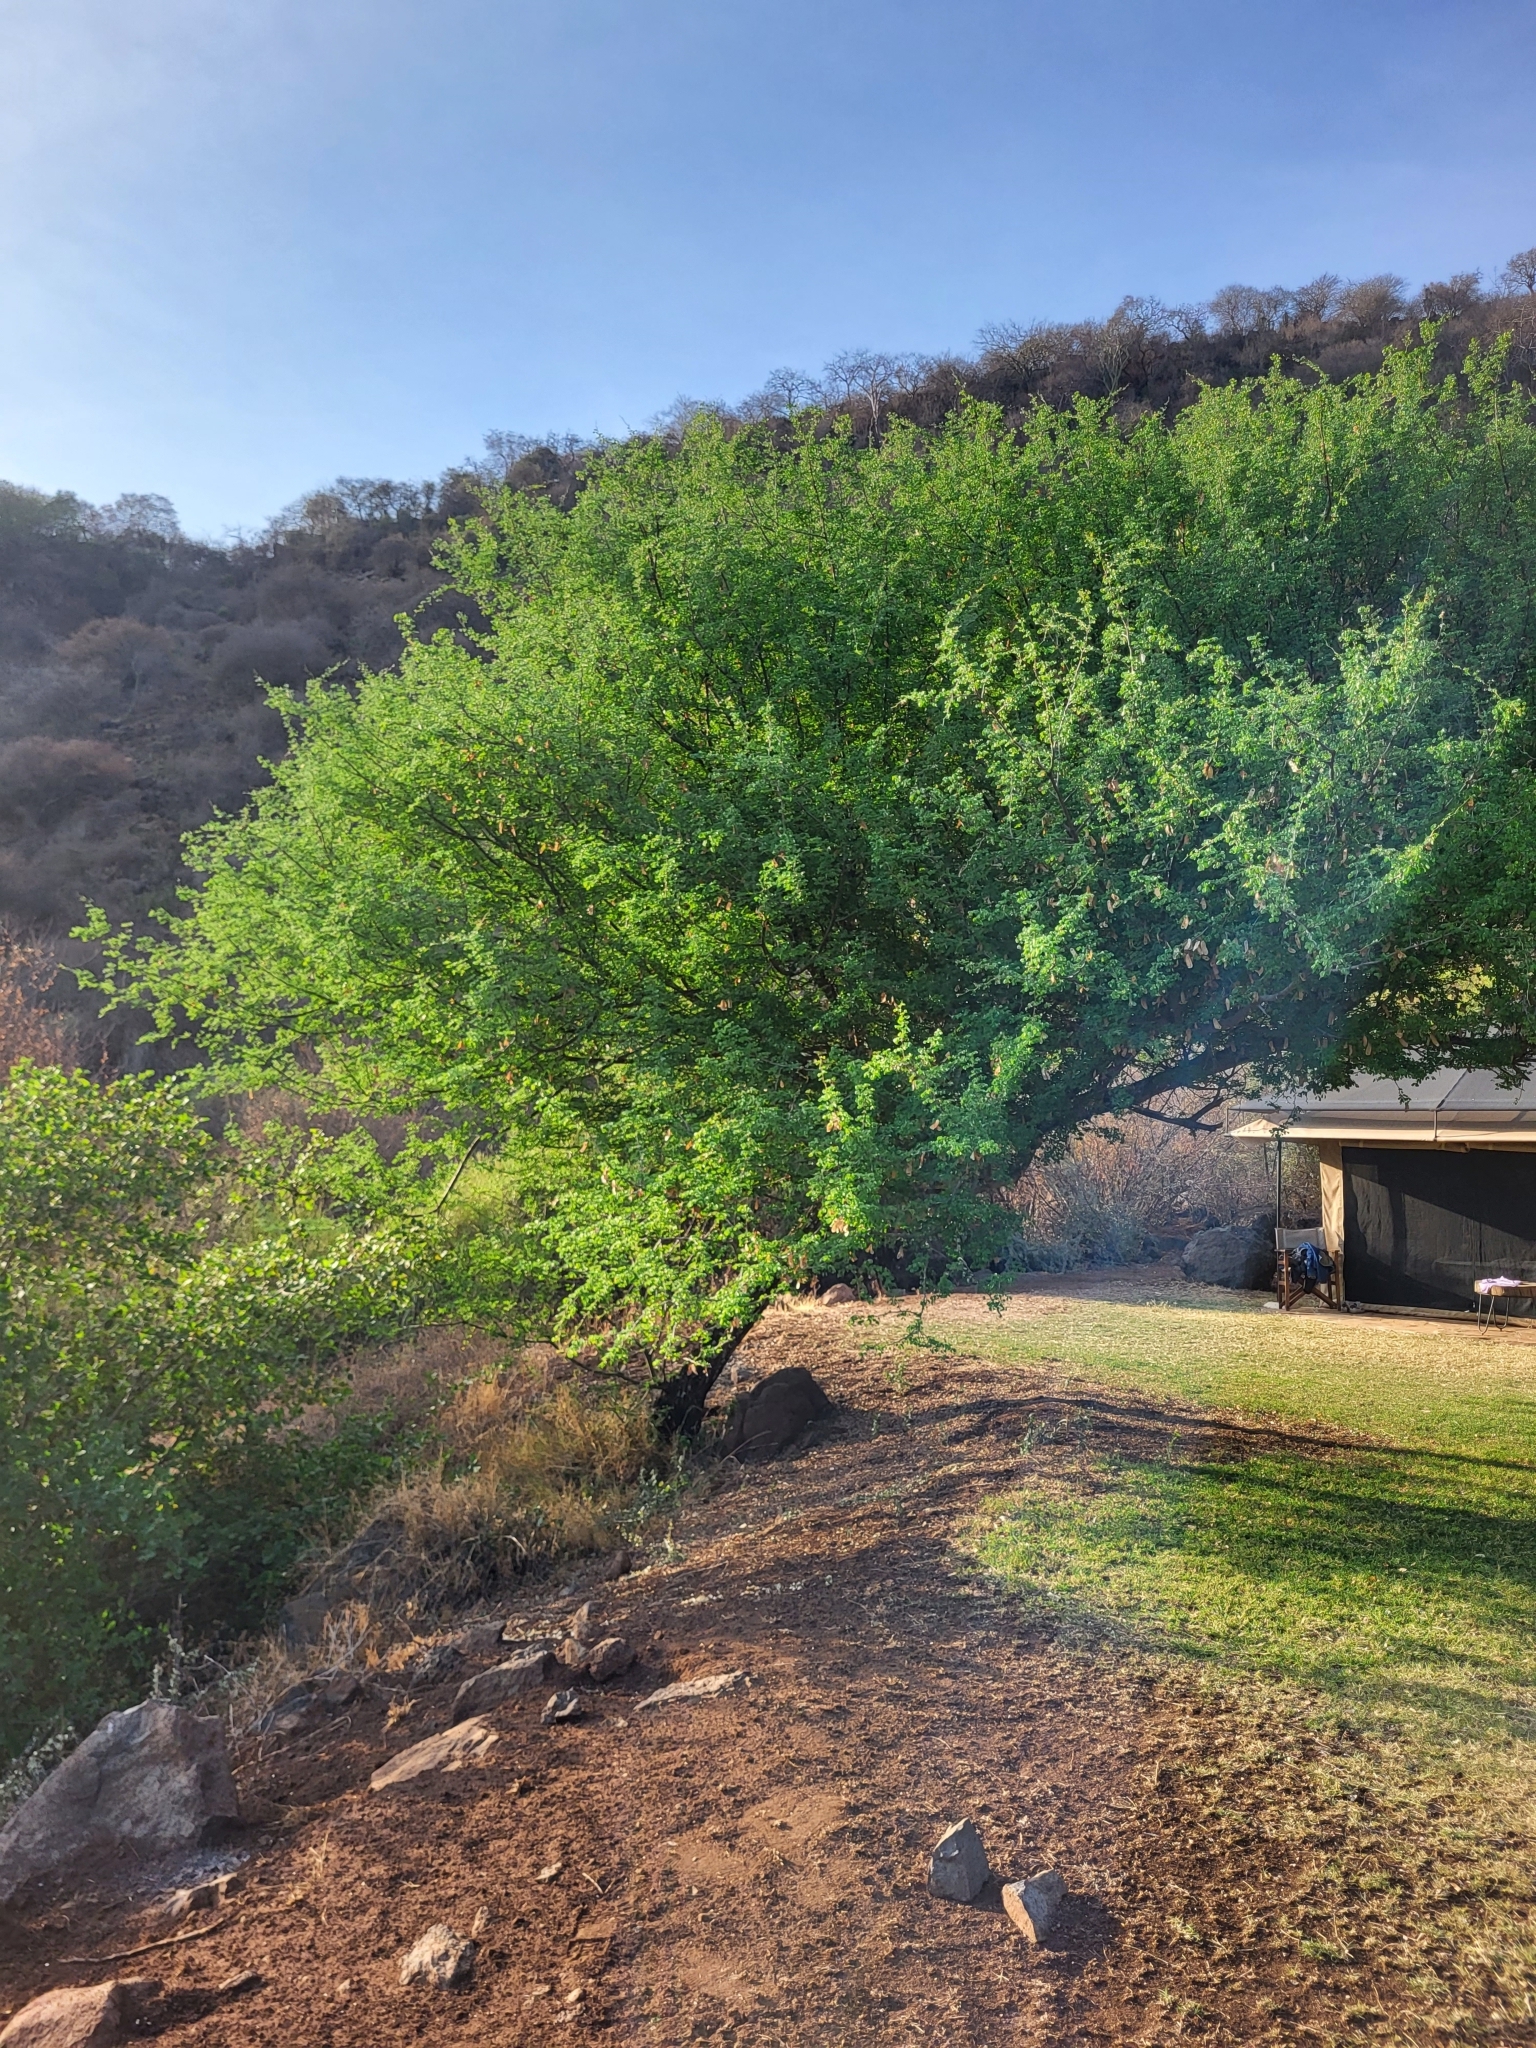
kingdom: Plantae
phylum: Tracheophyta
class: Magnoliopsida
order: Fabales
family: Fabaceae
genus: Senegalia
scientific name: Senegalia mellifera
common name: Hookthorn
